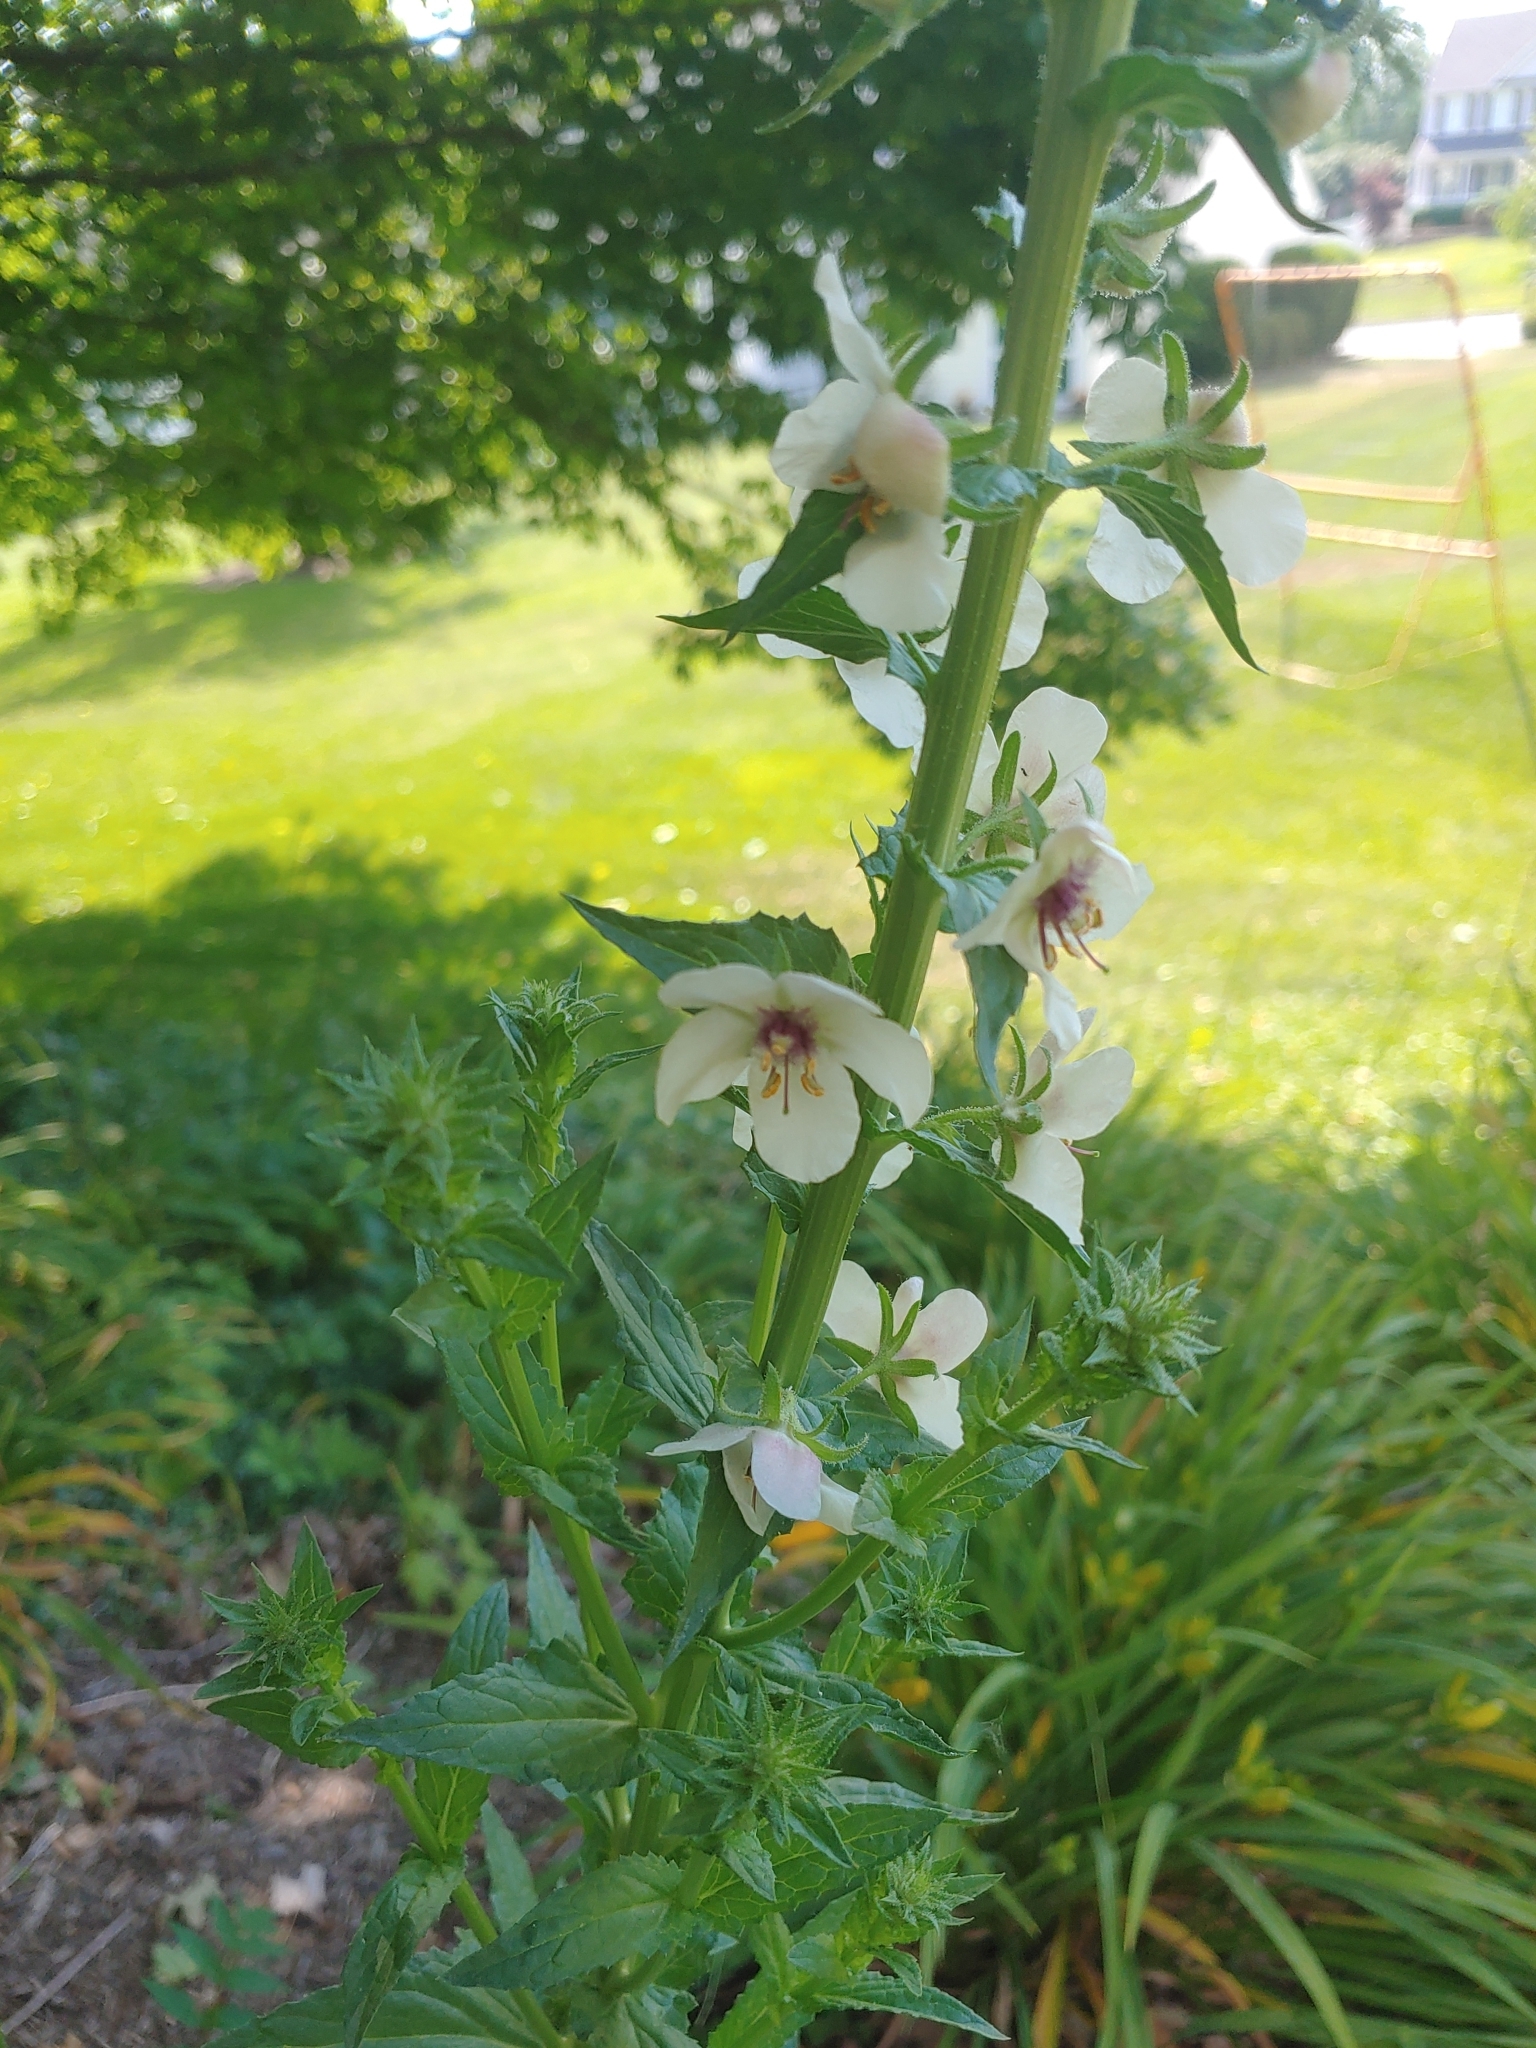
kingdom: Plantae
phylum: Tracheophyta
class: Magnoliopsida
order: Lamiales
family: Scrophulariaceae
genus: Verbascum
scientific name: Verbascum blattaria
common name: Moth mullein
